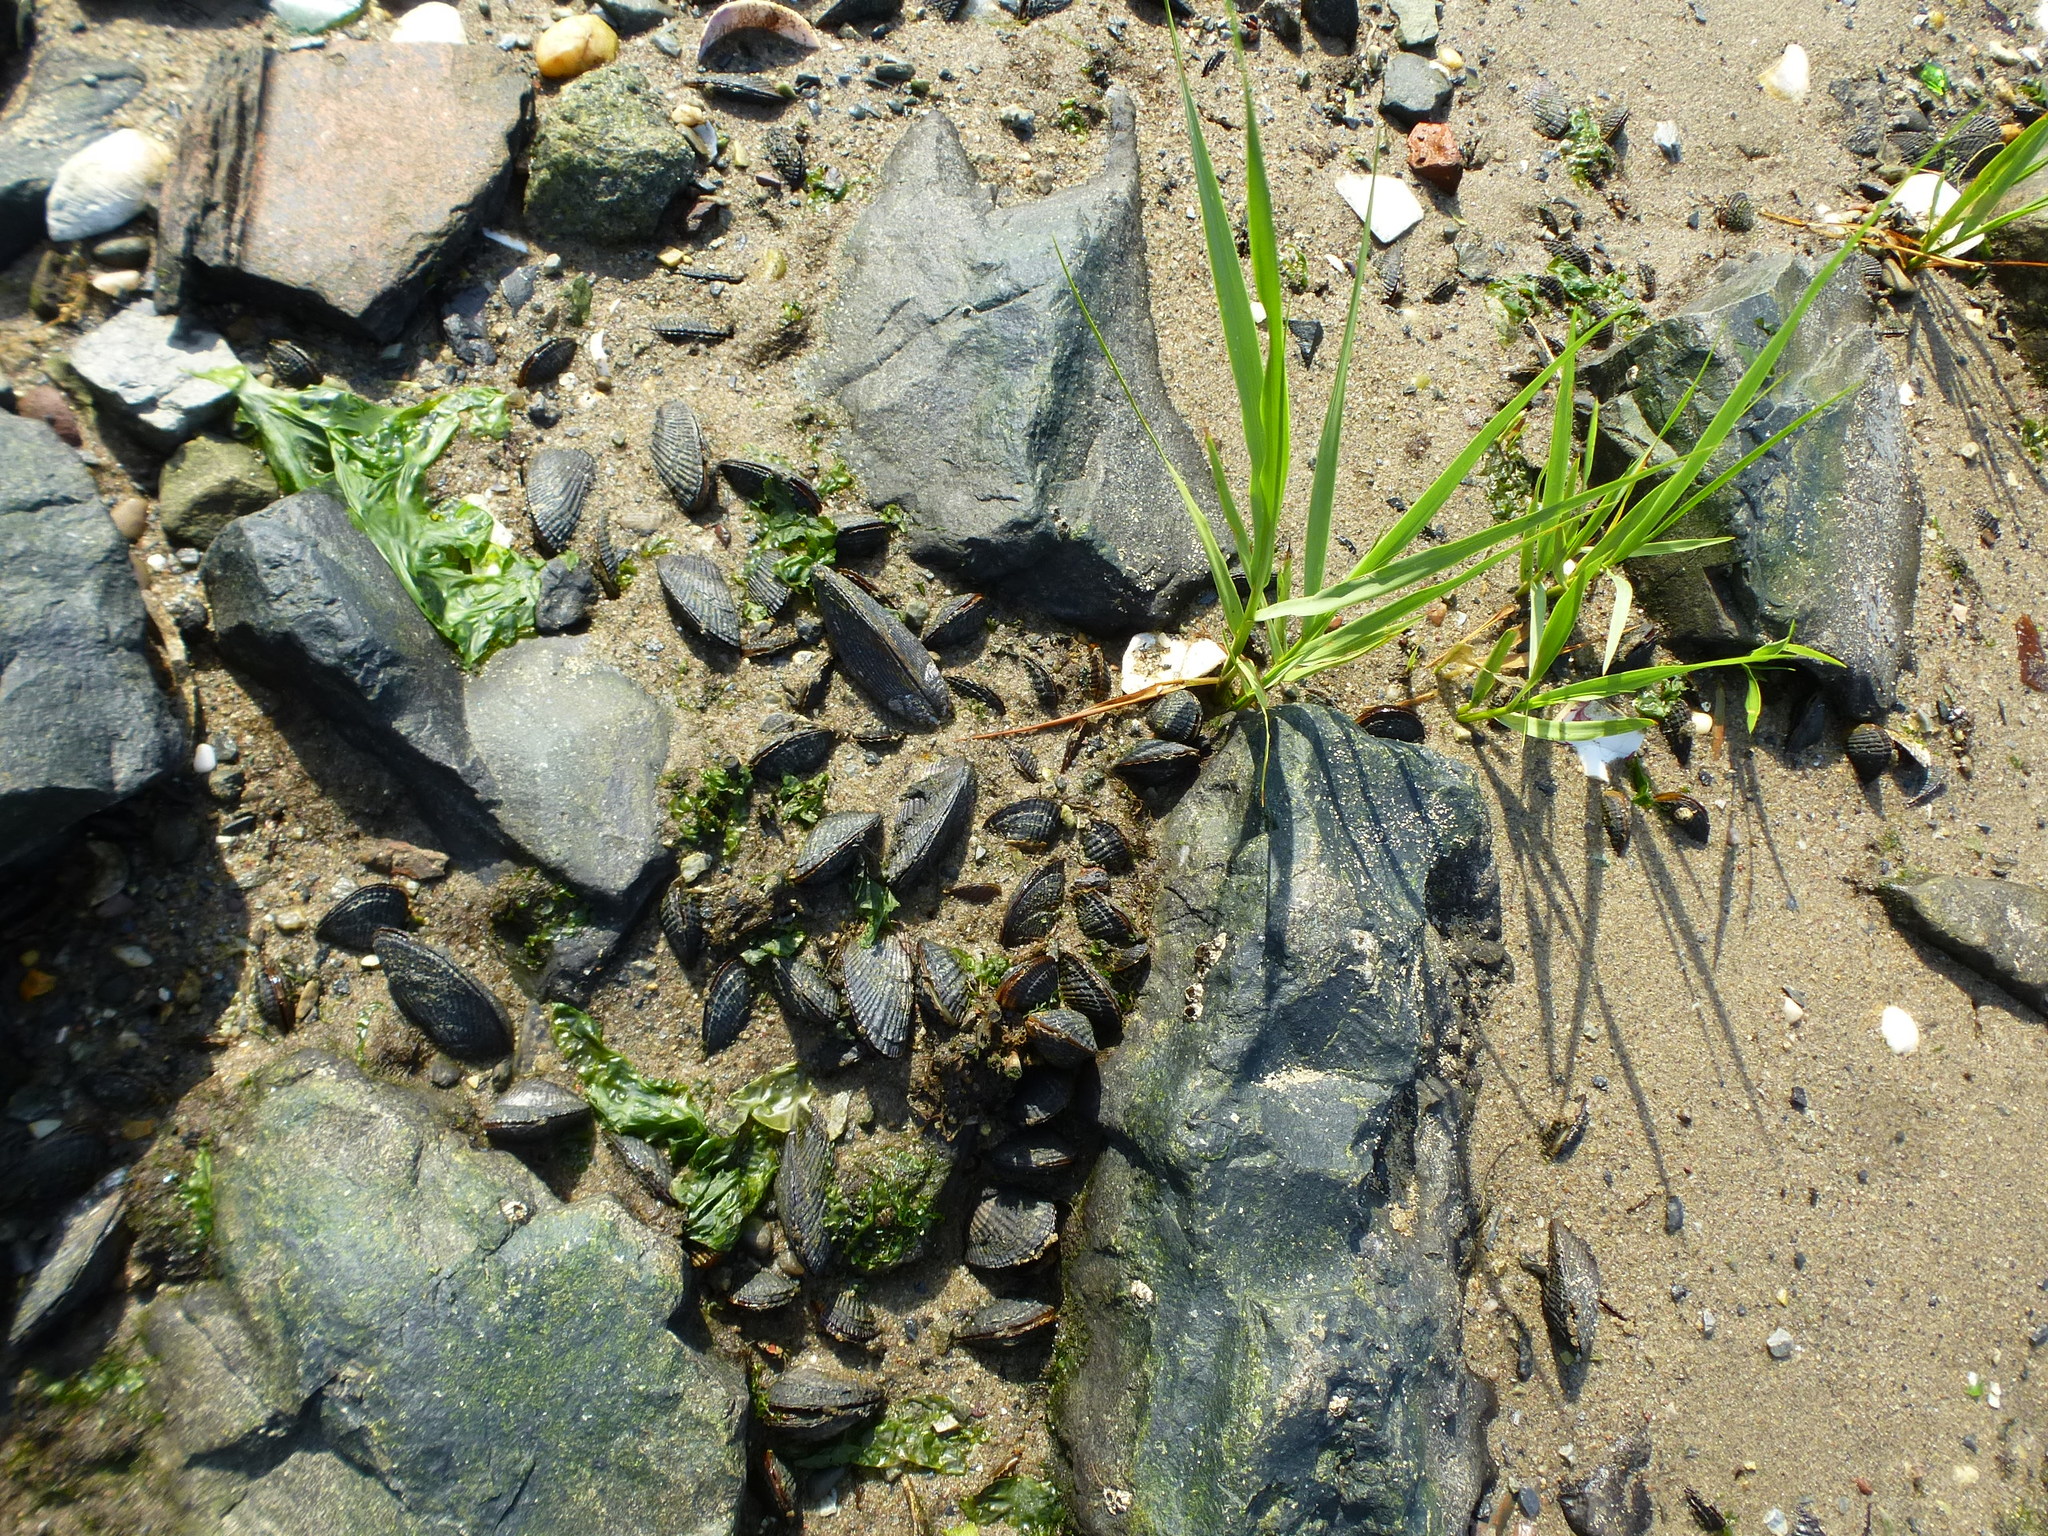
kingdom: Animalia
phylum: Mollusca
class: Bivalvia
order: Mytilida
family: Mytilidae
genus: Geukensia
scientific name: Geukensia demissa
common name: Ribbed mussel
